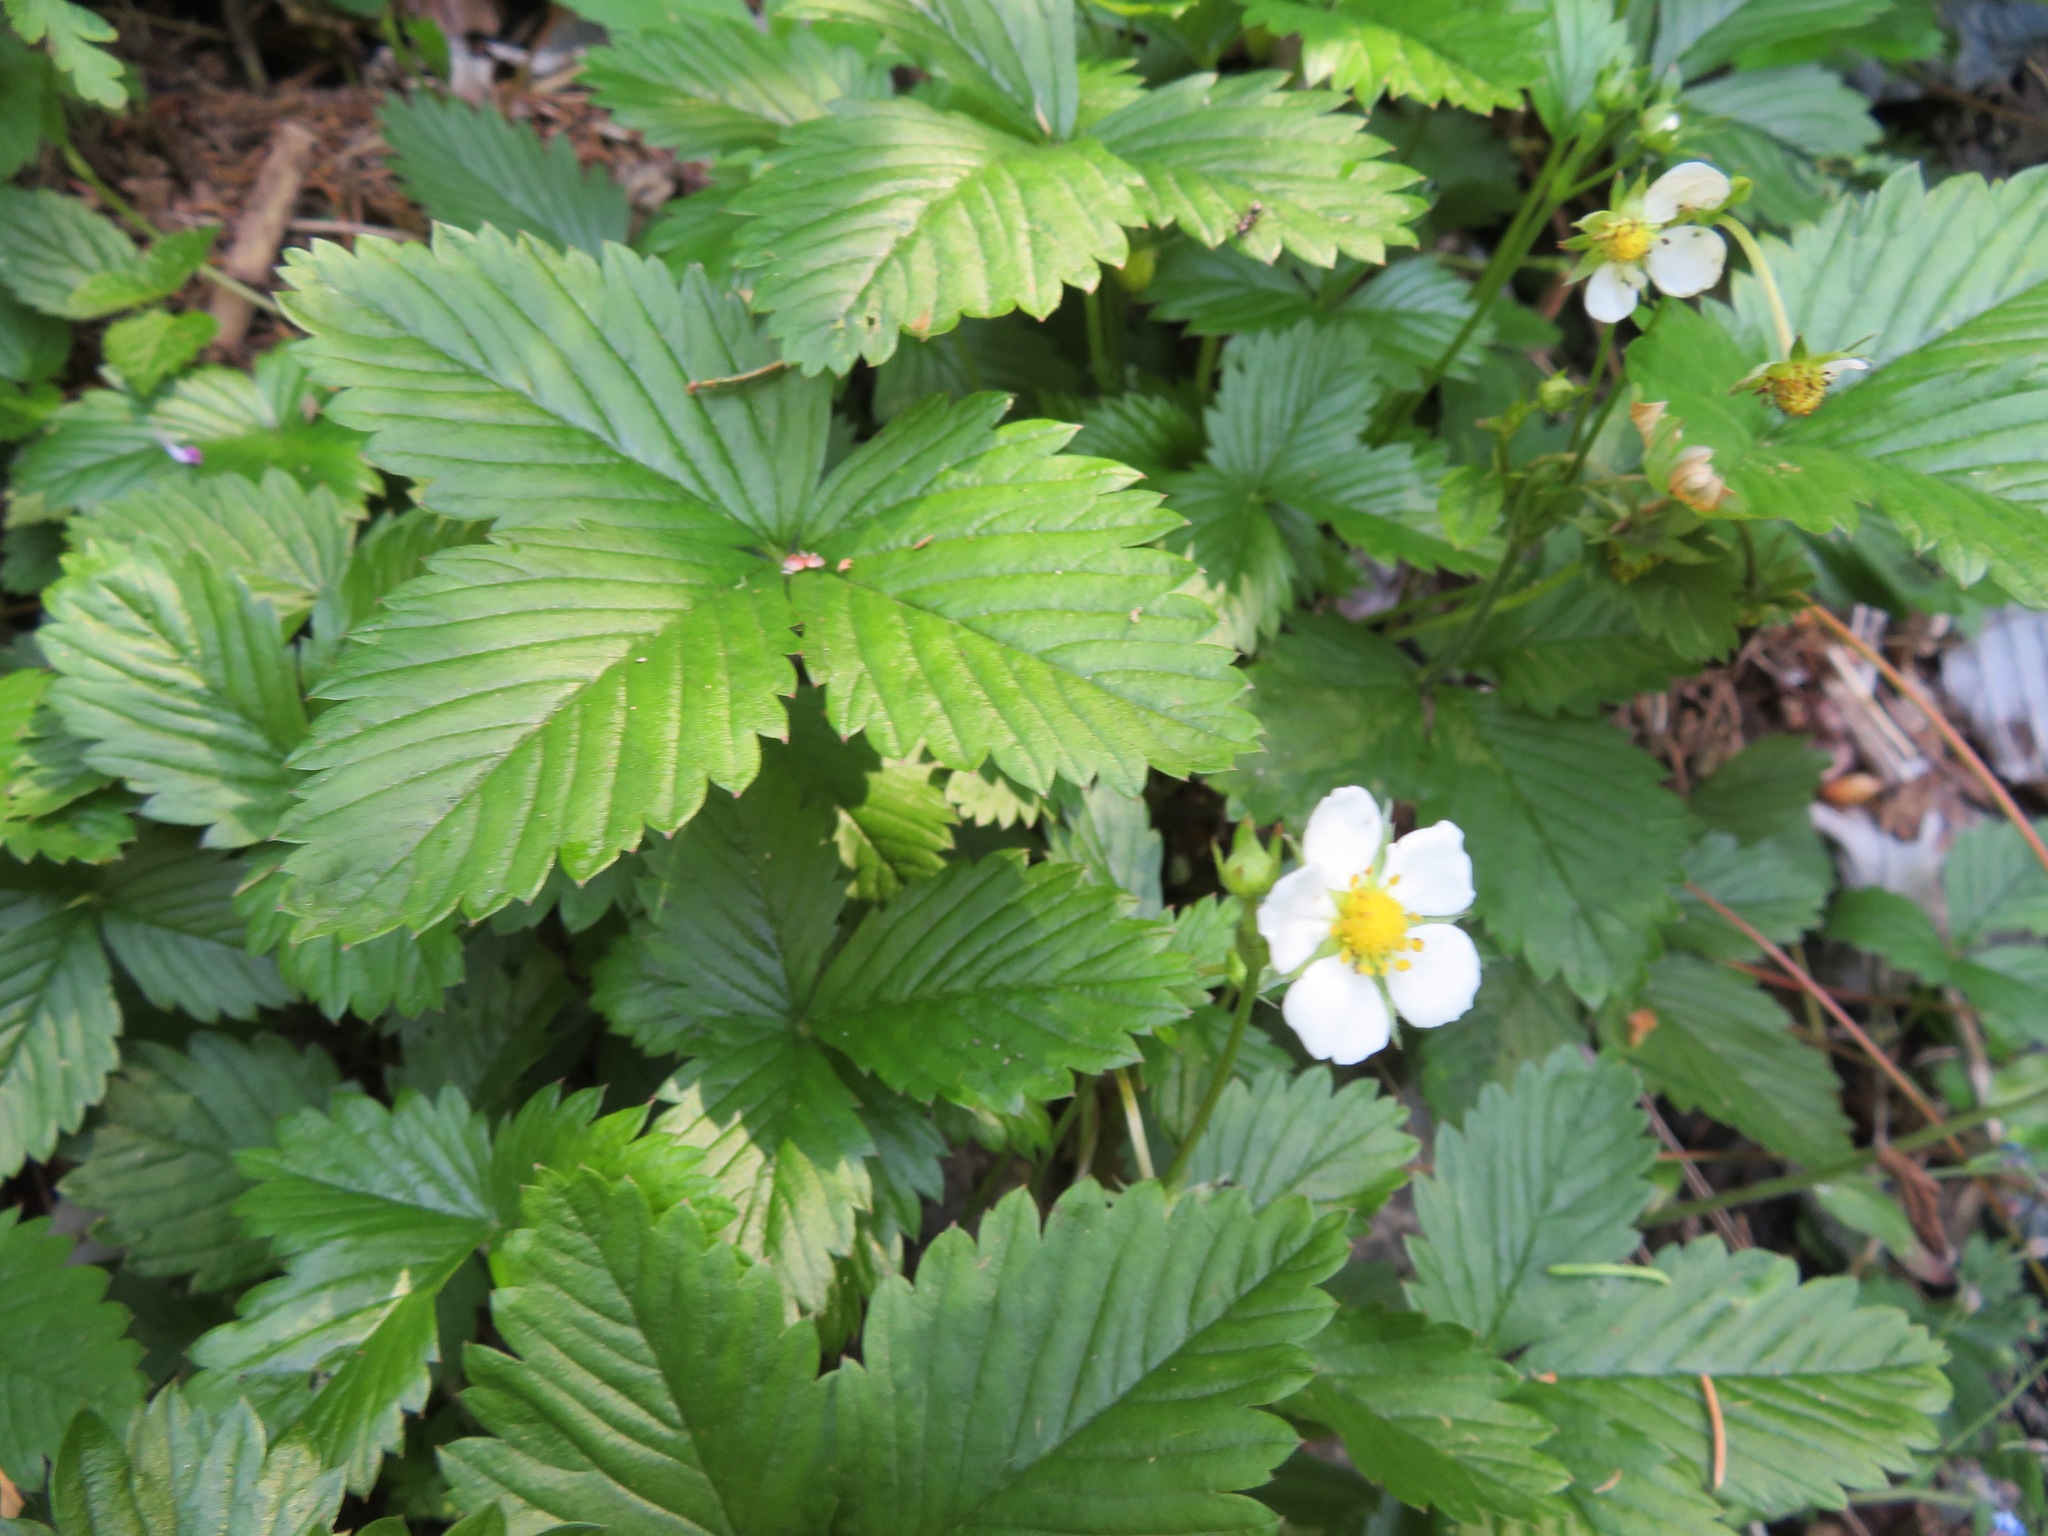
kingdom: Plantae
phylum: Tracheophyta
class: Magnoliopsida
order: Rosales
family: Rosaceae
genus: Fragaria
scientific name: Fragaria vesca
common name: Wild strawberry
